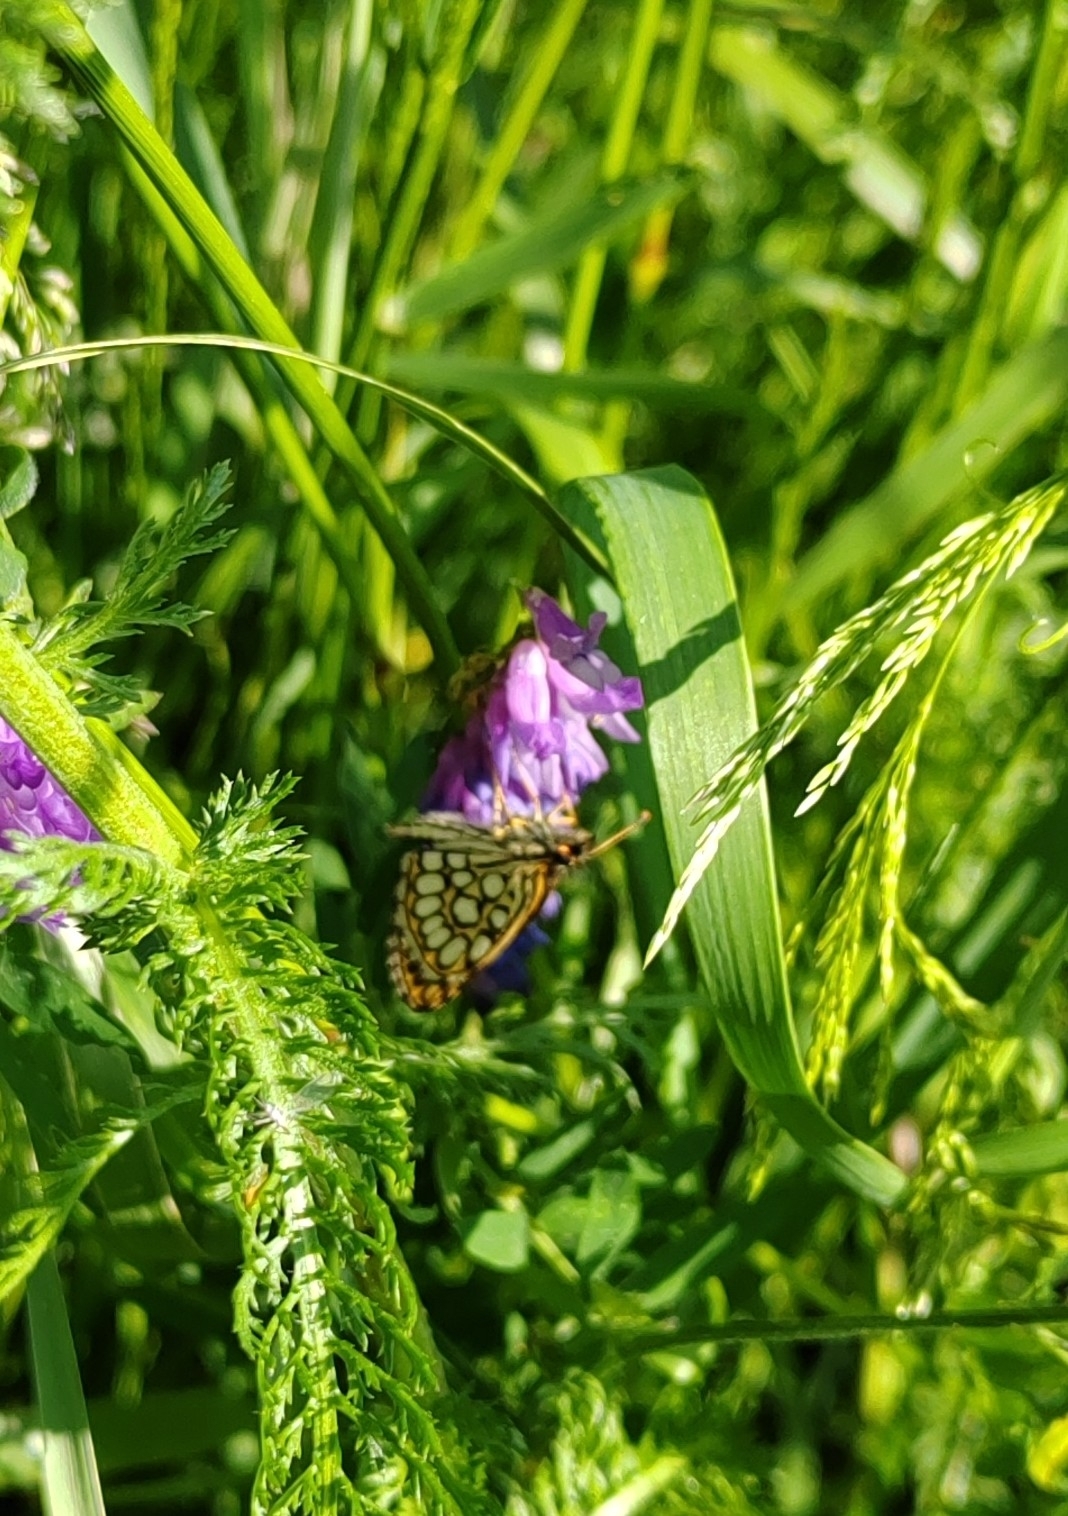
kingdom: Animalia
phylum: Arthropoda
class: Insecta
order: Lepidoptera
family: Hesperiidae
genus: Heteropterus
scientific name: Heteropterus morpheus
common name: Large chequered skipper
